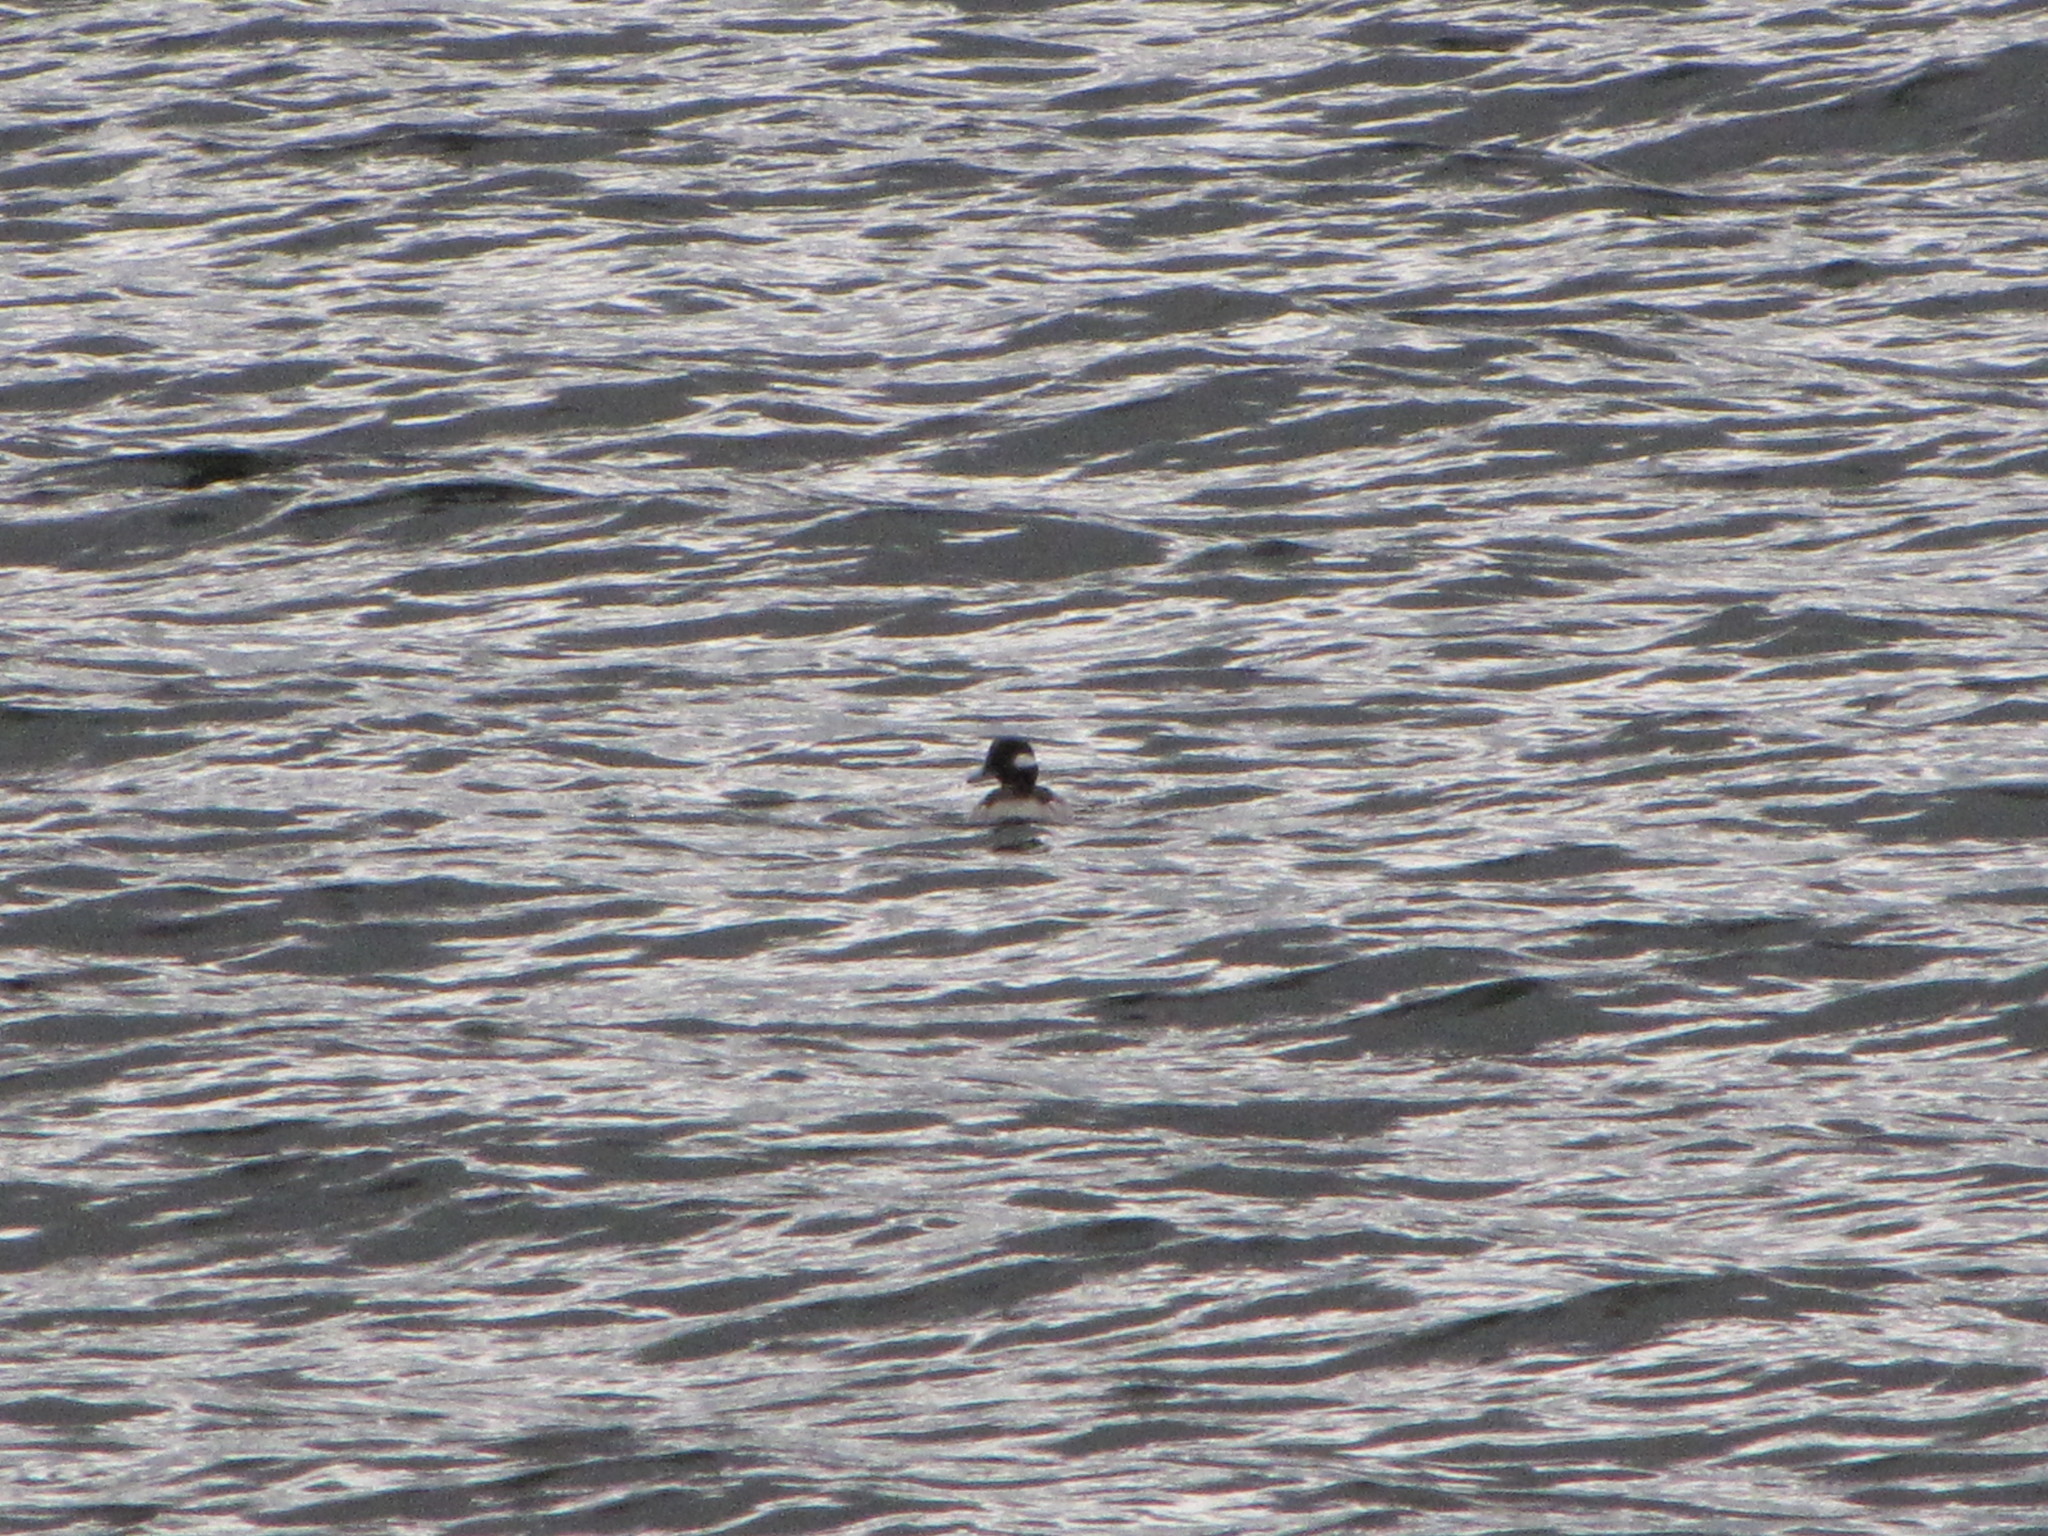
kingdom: Animalia
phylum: Chordata
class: Aves
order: Anseriformes
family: Anatidae
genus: Bucephala
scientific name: Bucephala albeola
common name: Bufflehead
